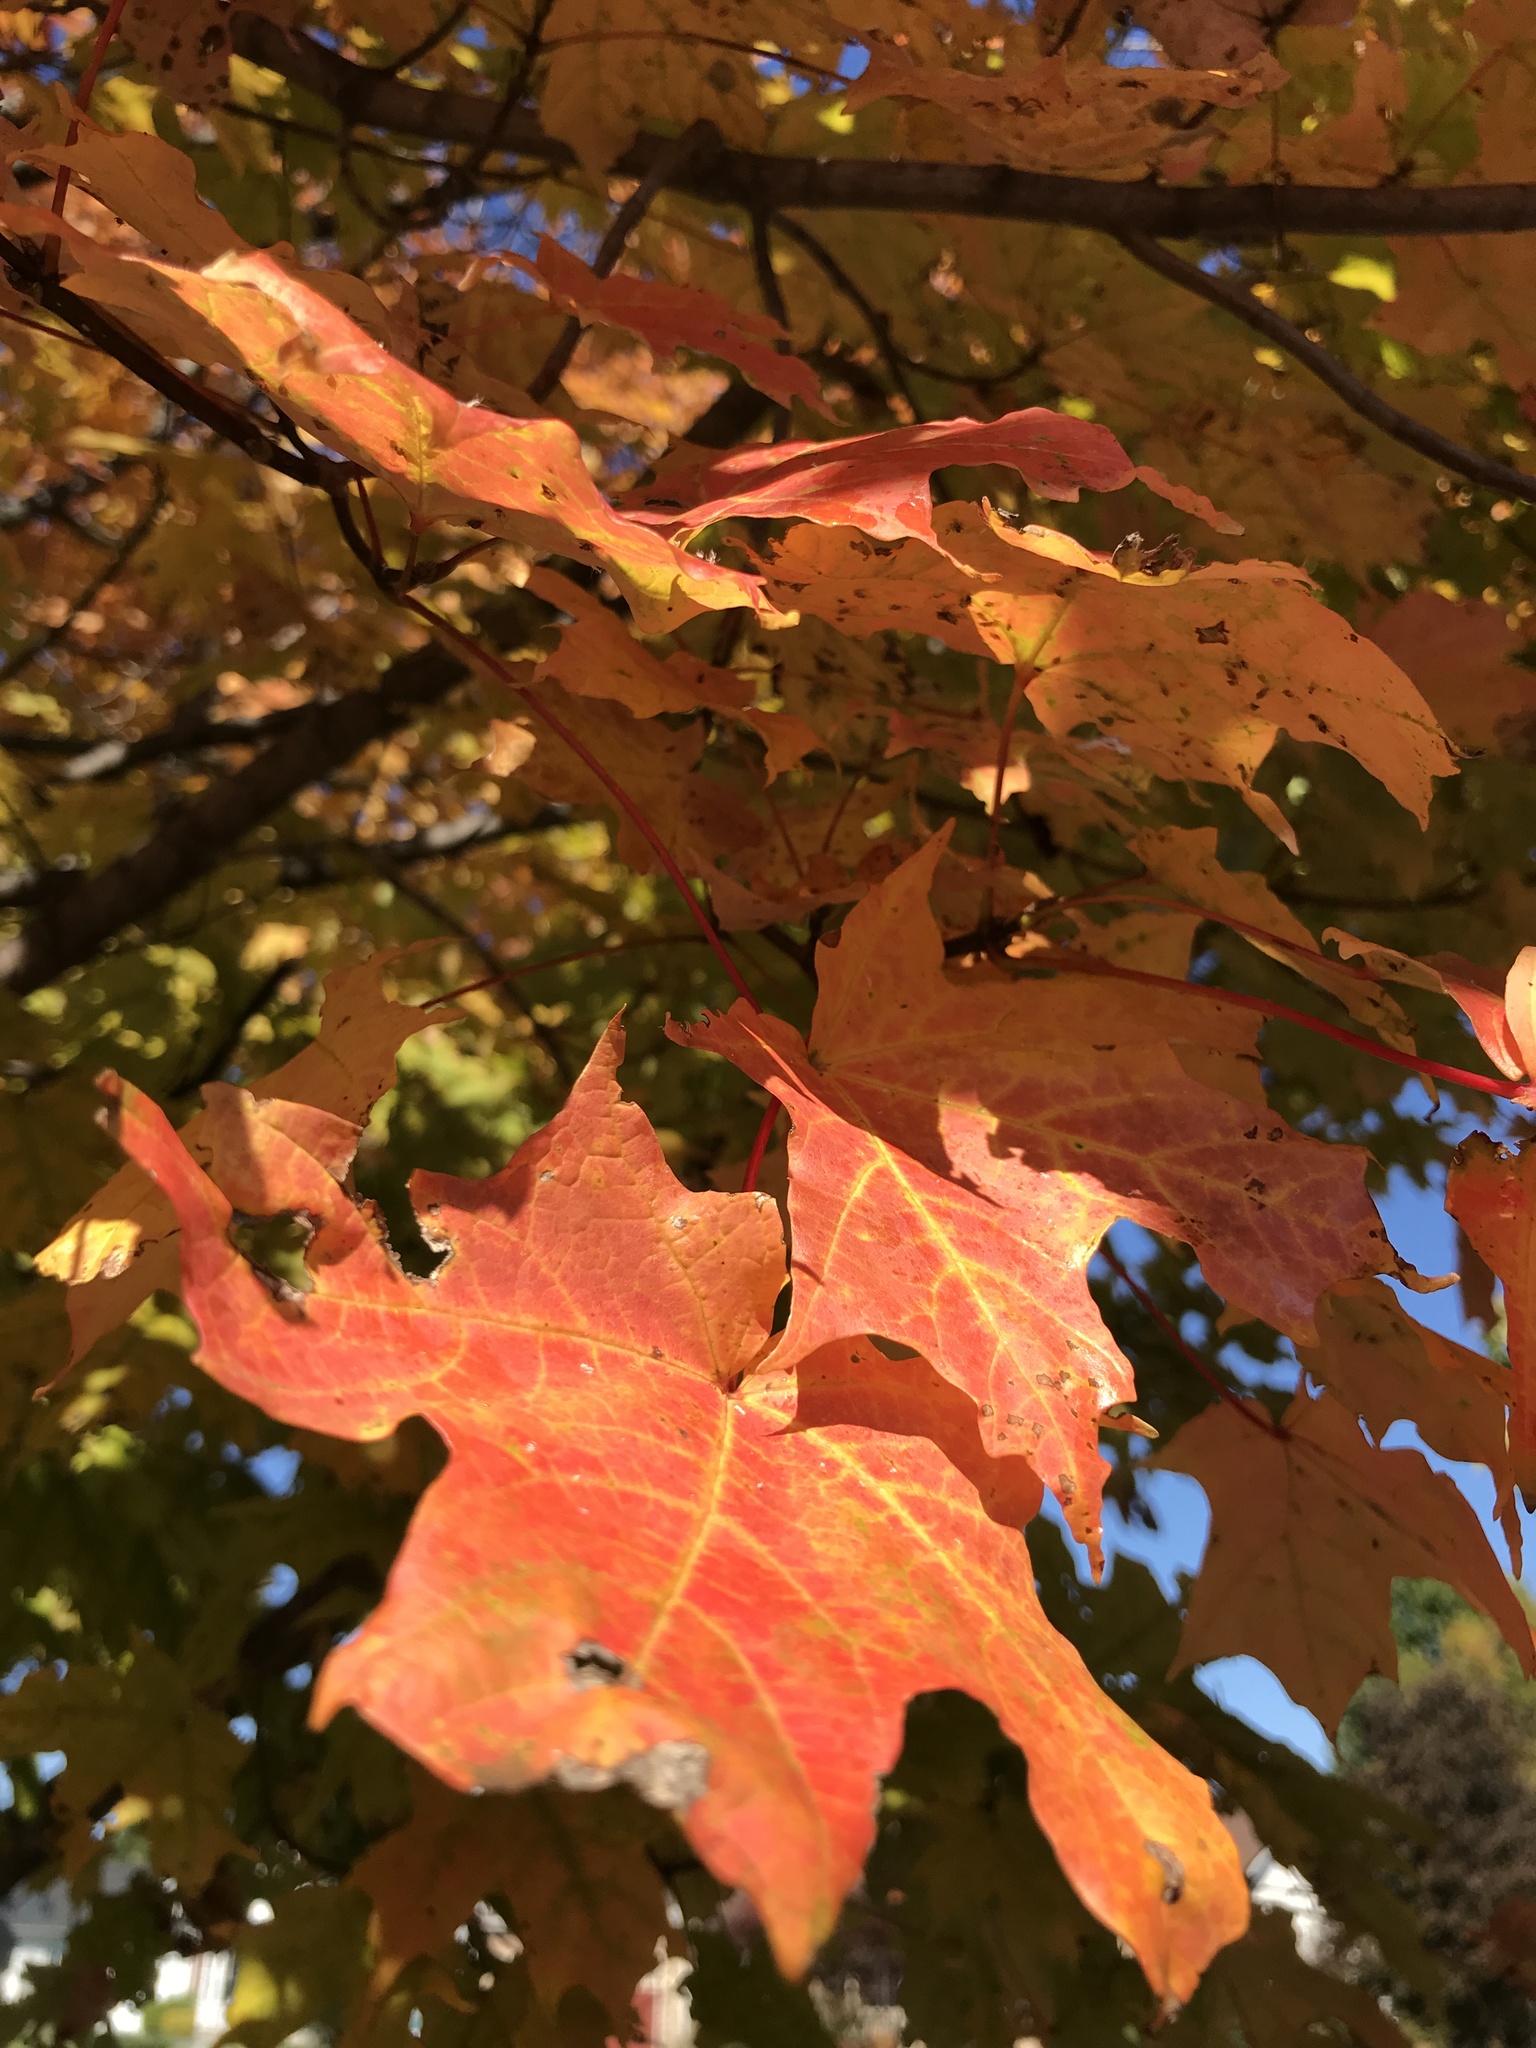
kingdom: Plantae
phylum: Tracheophyta
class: Magnoliopsida
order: Sapindales
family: Sapindaceae
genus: Acer
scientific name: Acer saccharum
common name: Sugar maple
